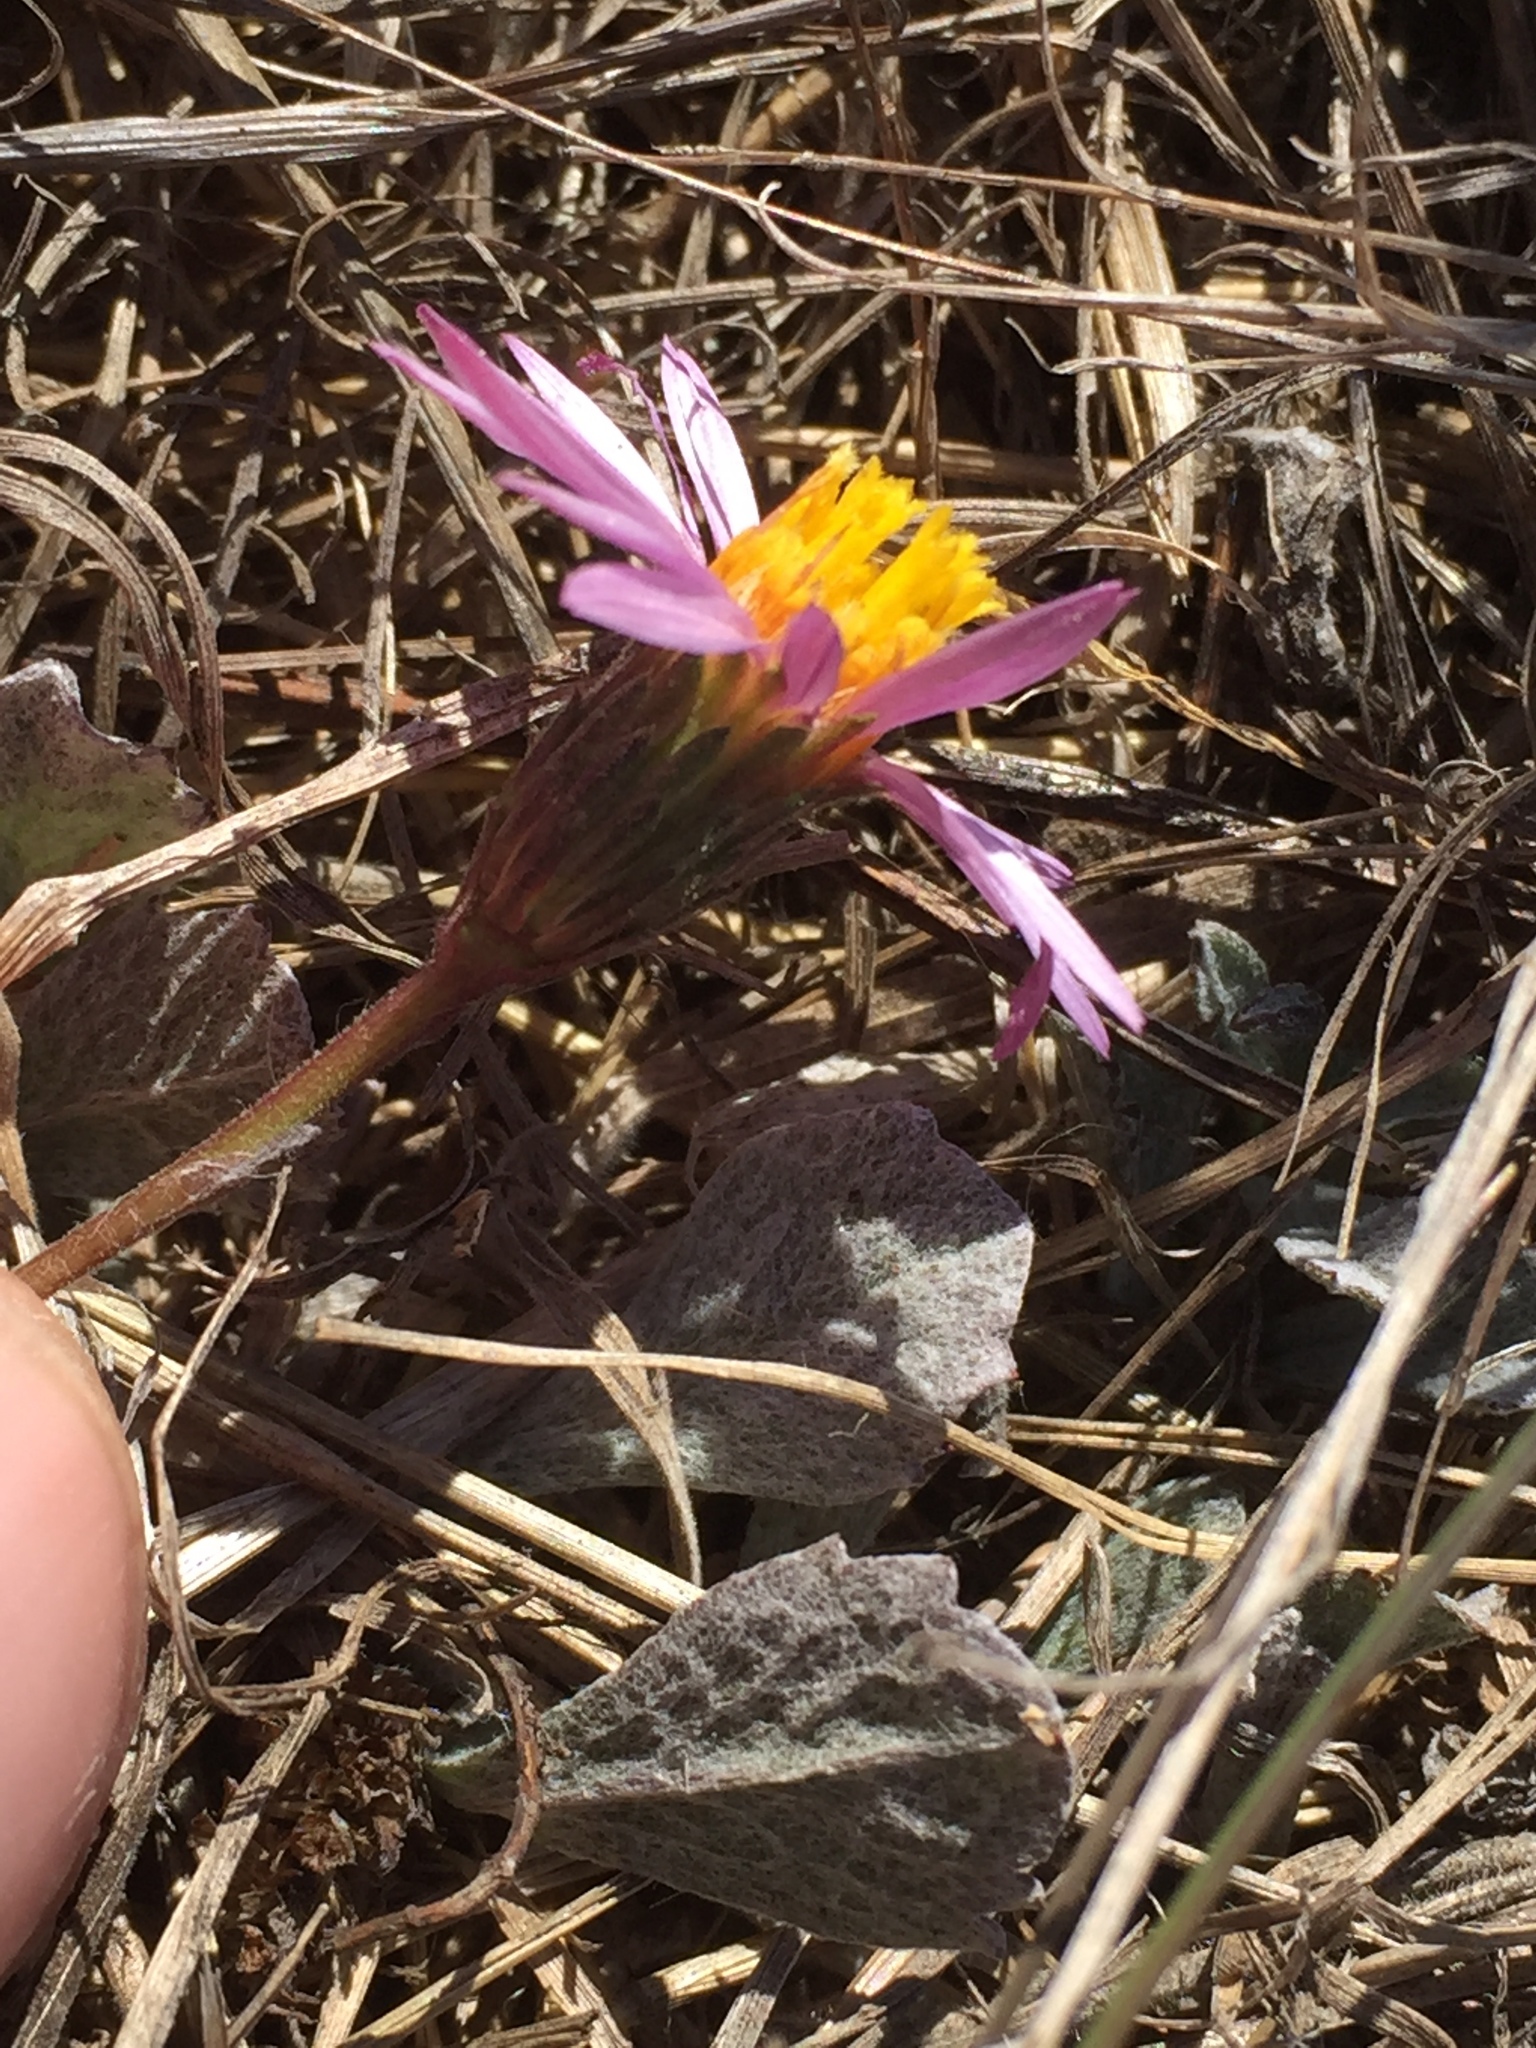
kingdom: Plantae
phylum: Tracheophyta
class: Magnoliopsida
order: Asterales
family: Asteraceae
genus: Corethrogyne
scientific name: Corethrogyne filaginifolia
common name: Sand-aster
